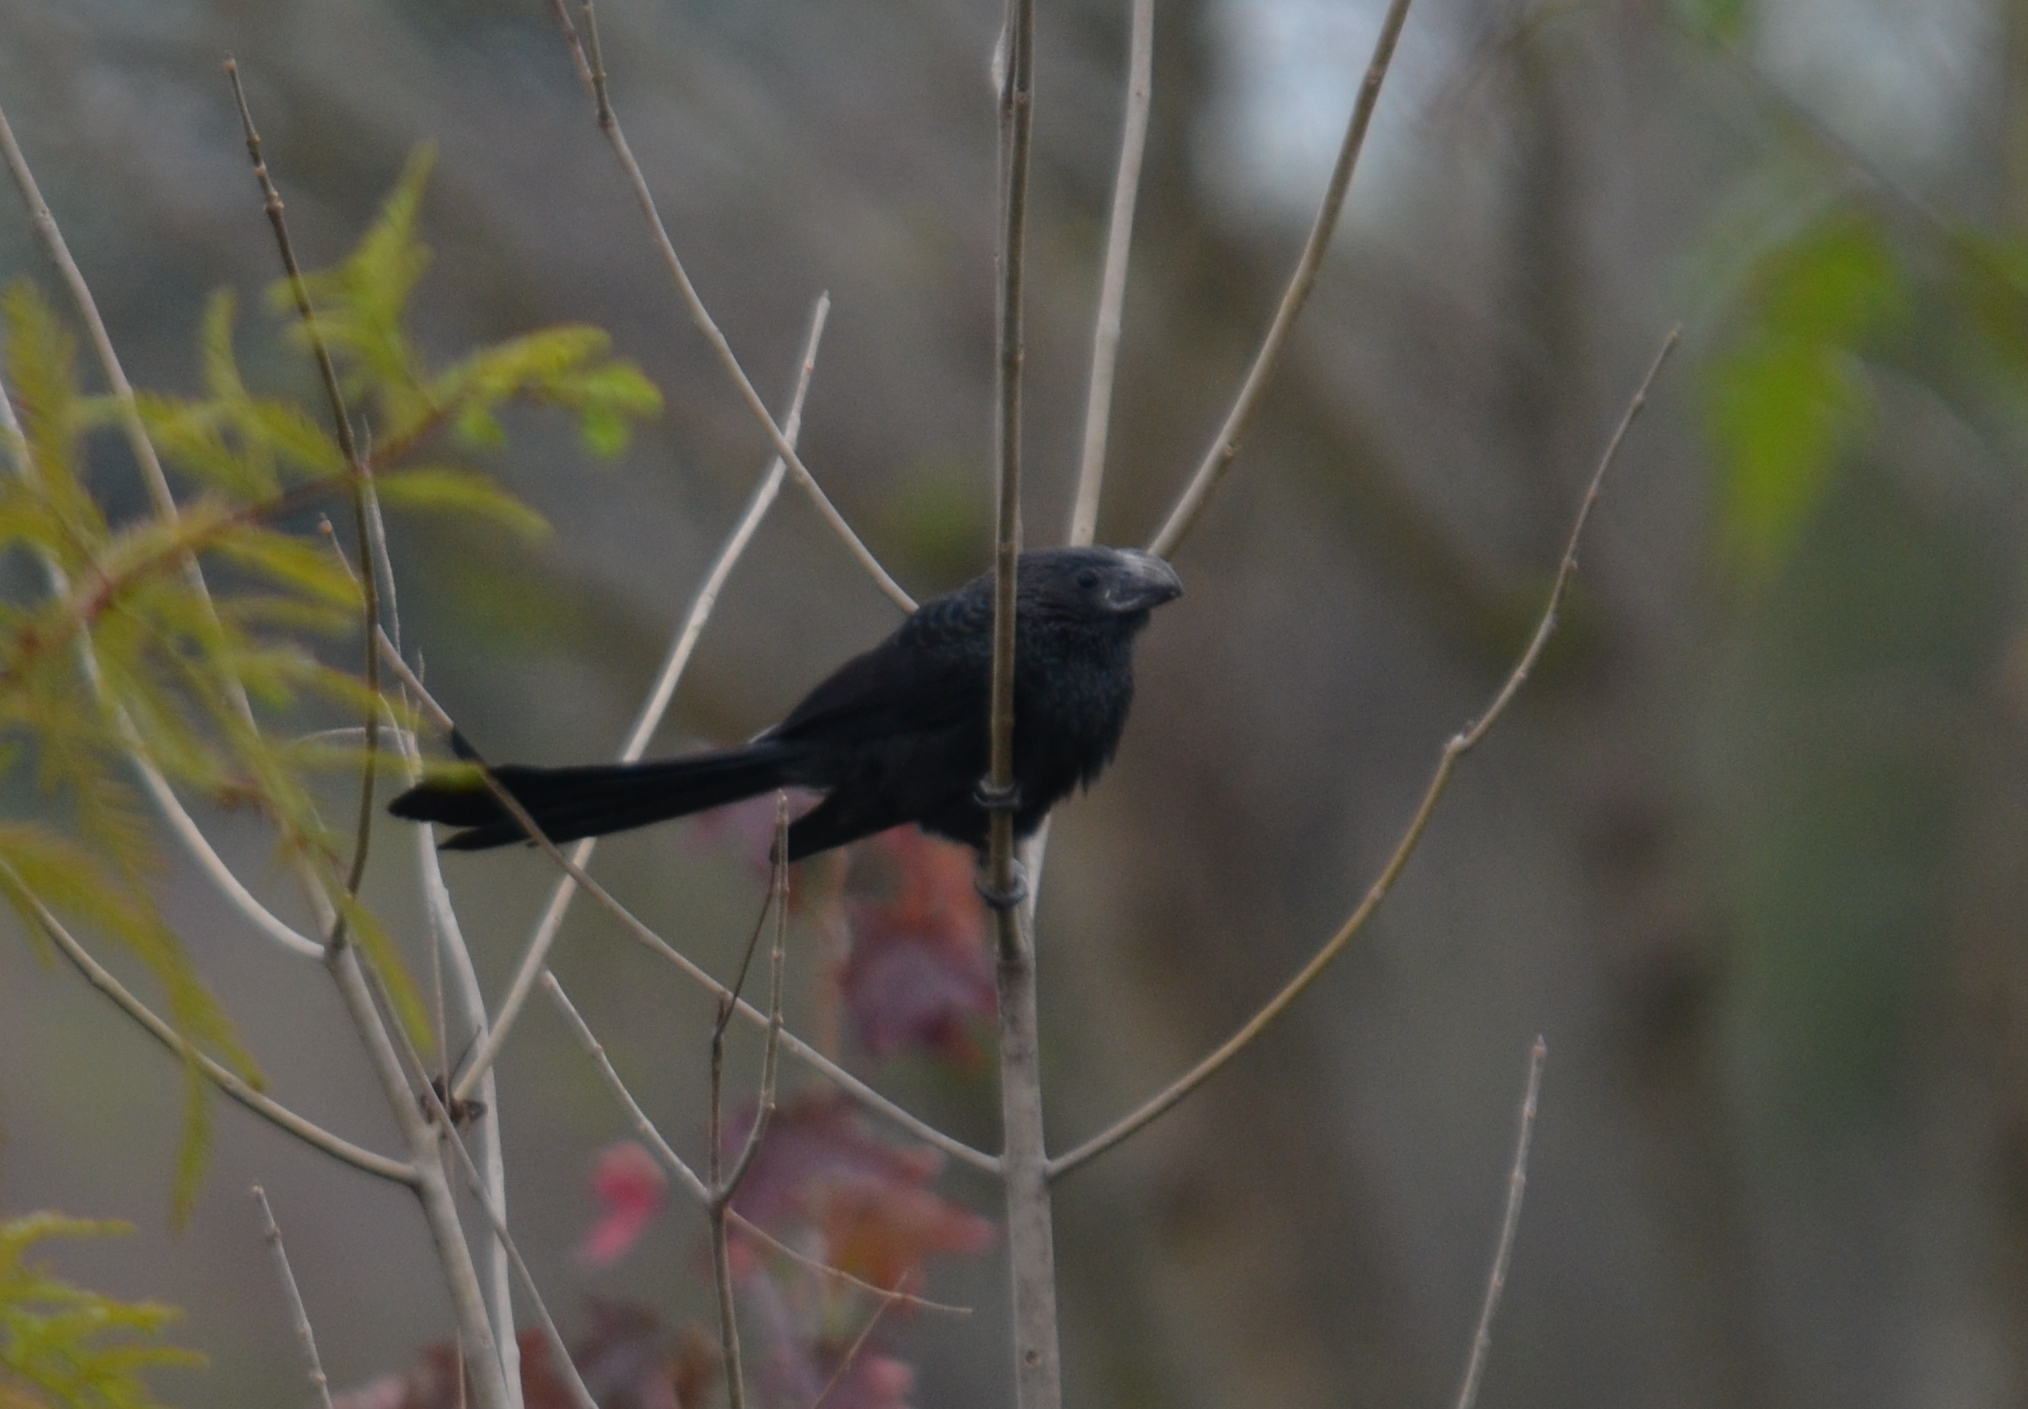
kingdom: Animalia
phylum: Chordata
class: Aves
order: Cuculiformes
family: Cuculidae
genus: Crotophaga
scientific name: Crotophaga sulcirostris
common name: Groove-billed ani
